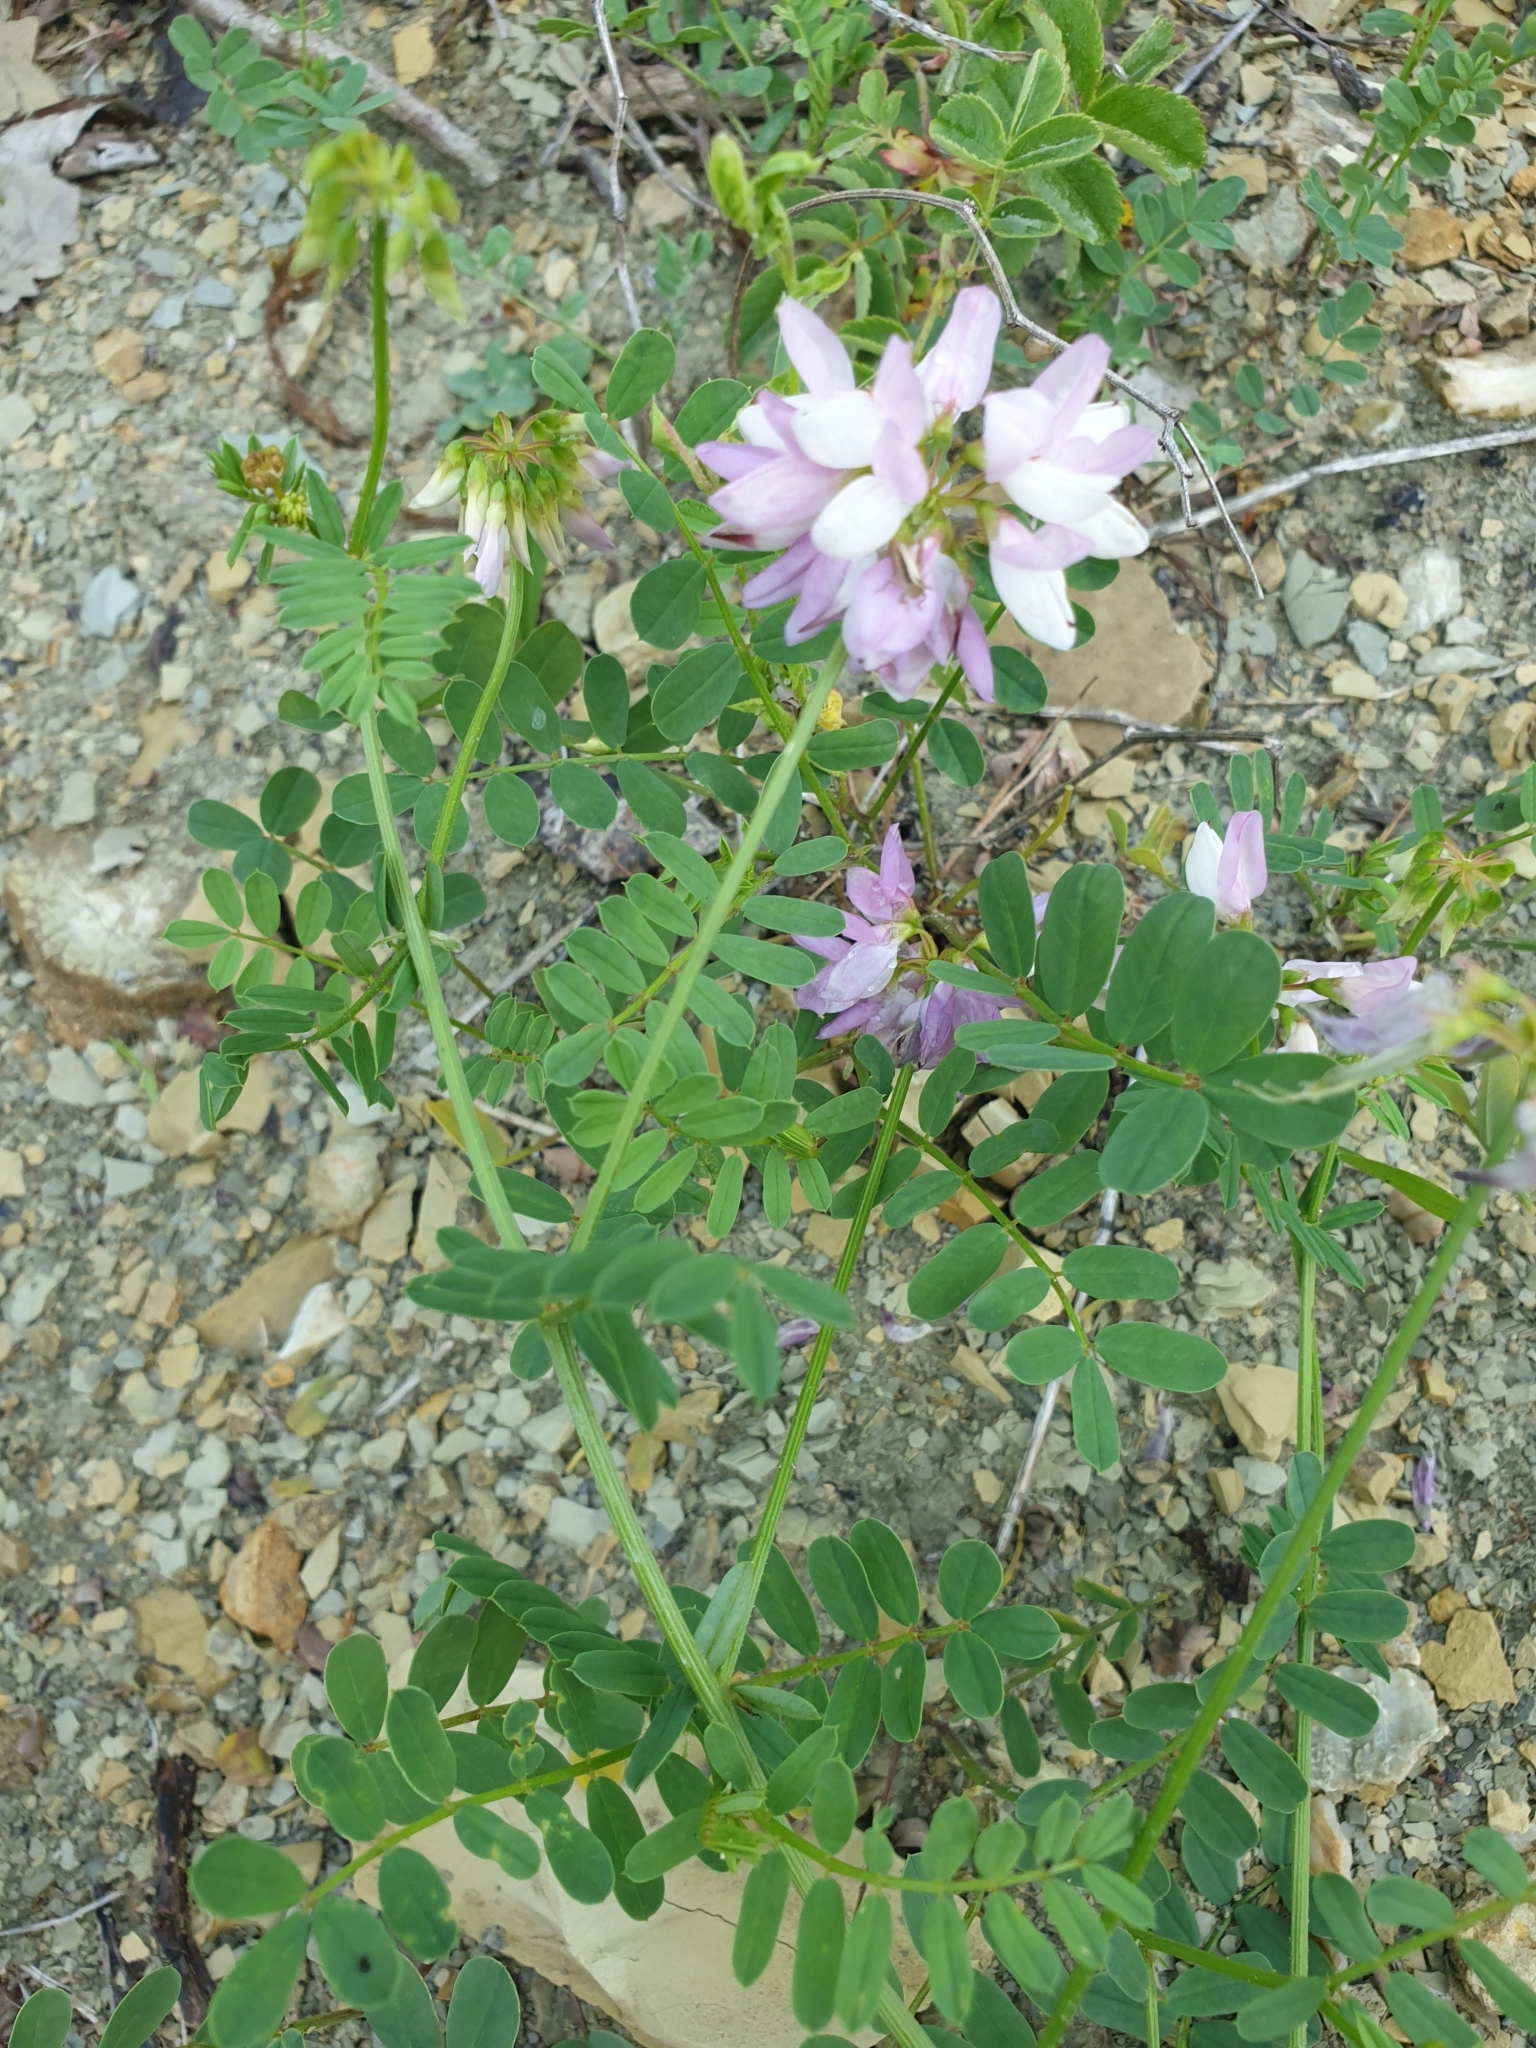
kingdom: Plantae
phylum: Tracheophyta
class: Magnoliopsida
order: Fabales
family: Fabaceae
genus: Coronilla
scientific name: Coronilla varia
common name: Crownvetch
